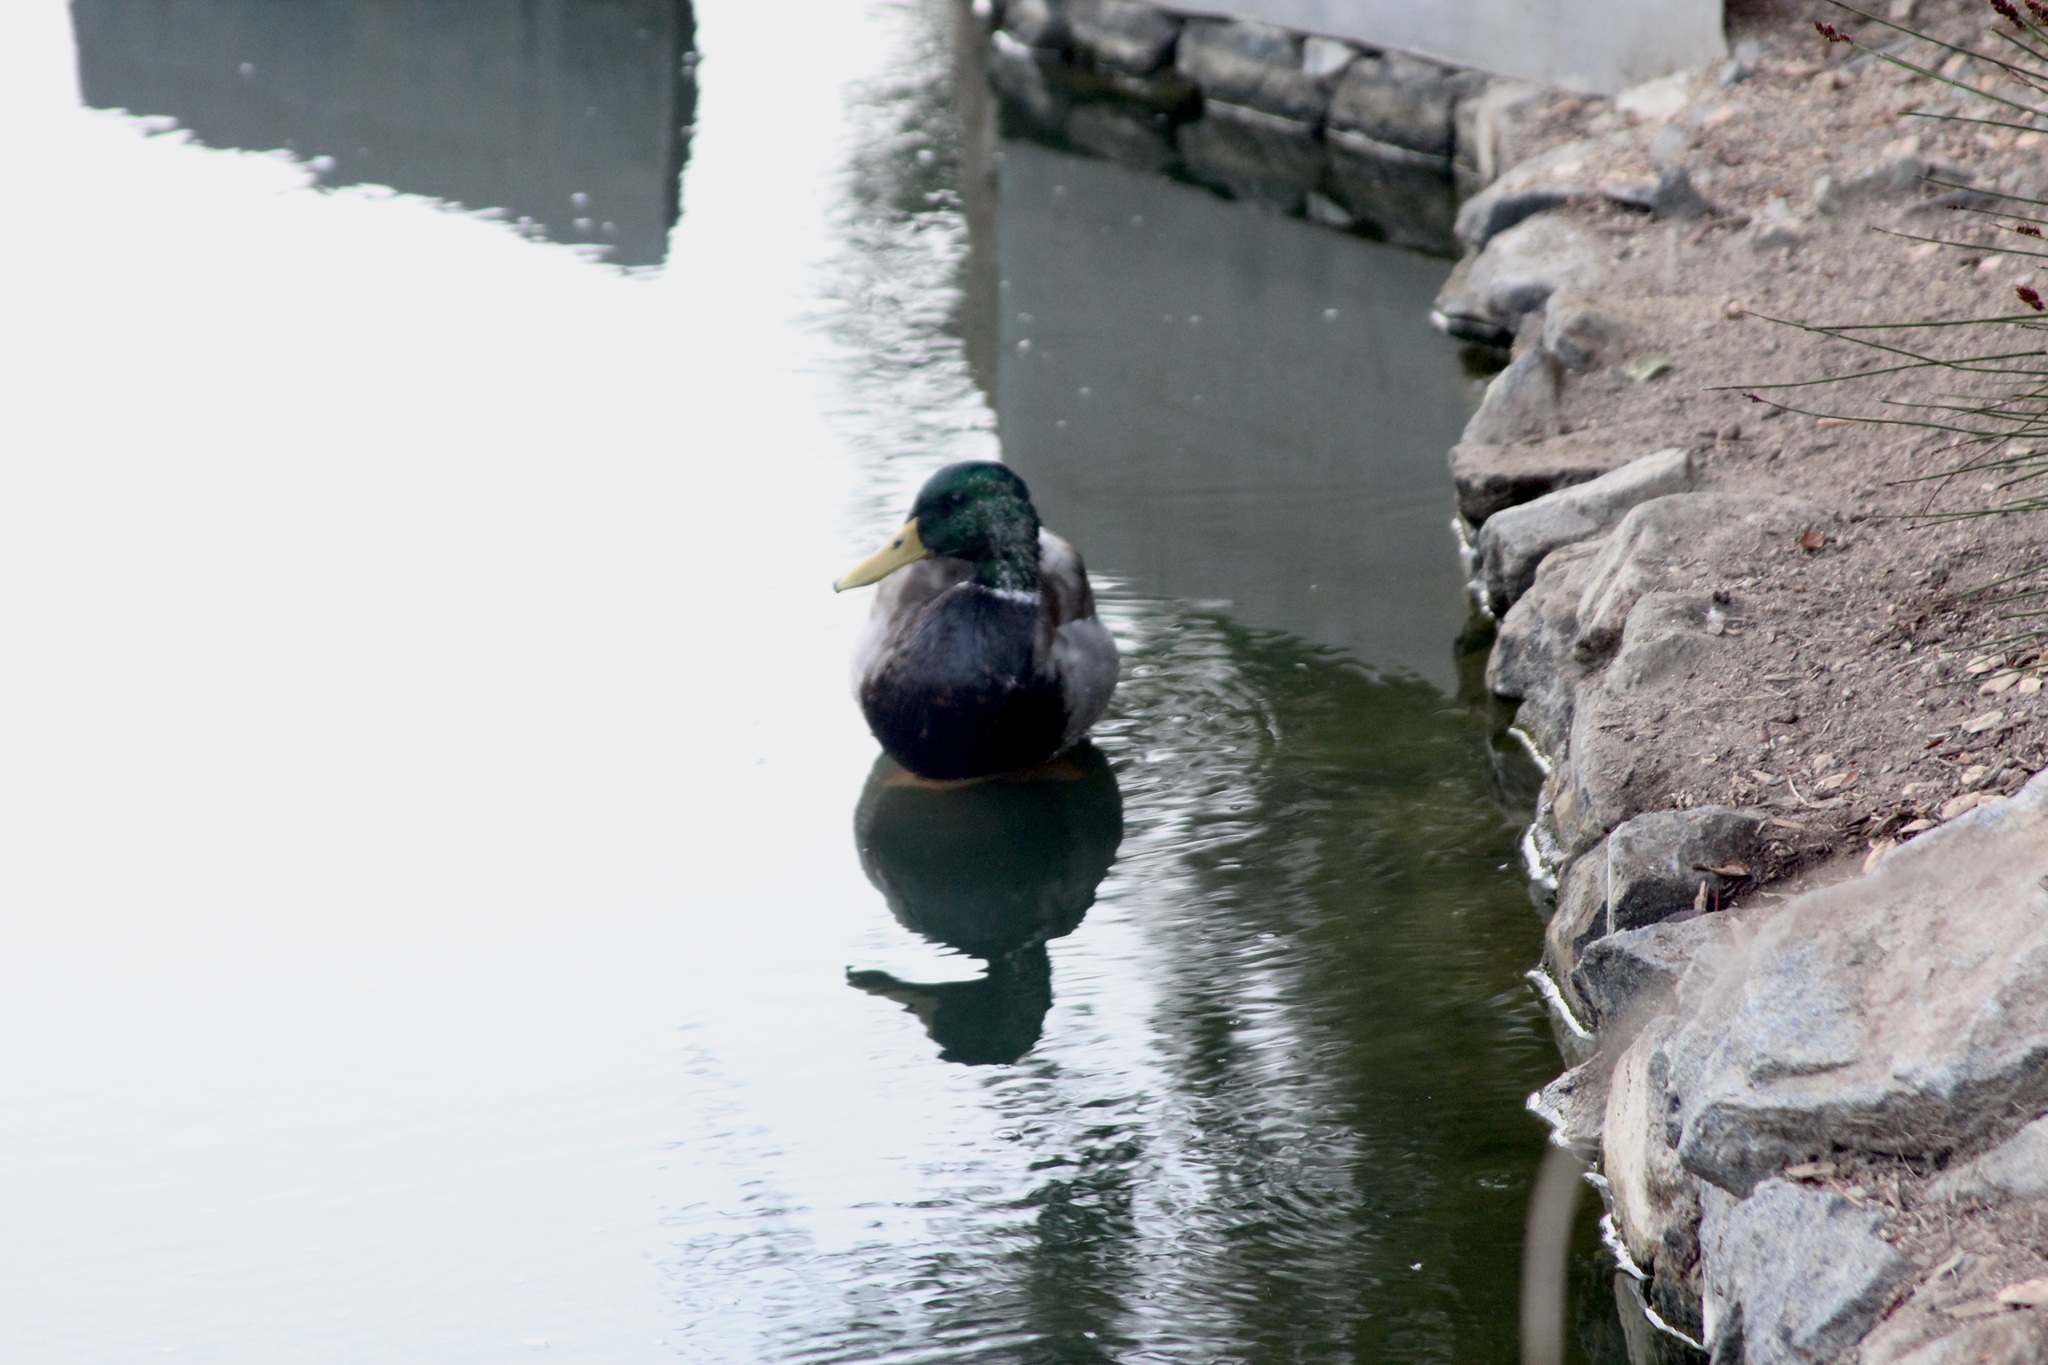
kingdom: Animalia
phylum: Chordata
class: Aves
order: Anseriformes
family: Anatidae
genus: Anas
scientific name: Anas platyrhynchos
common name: Mallard
